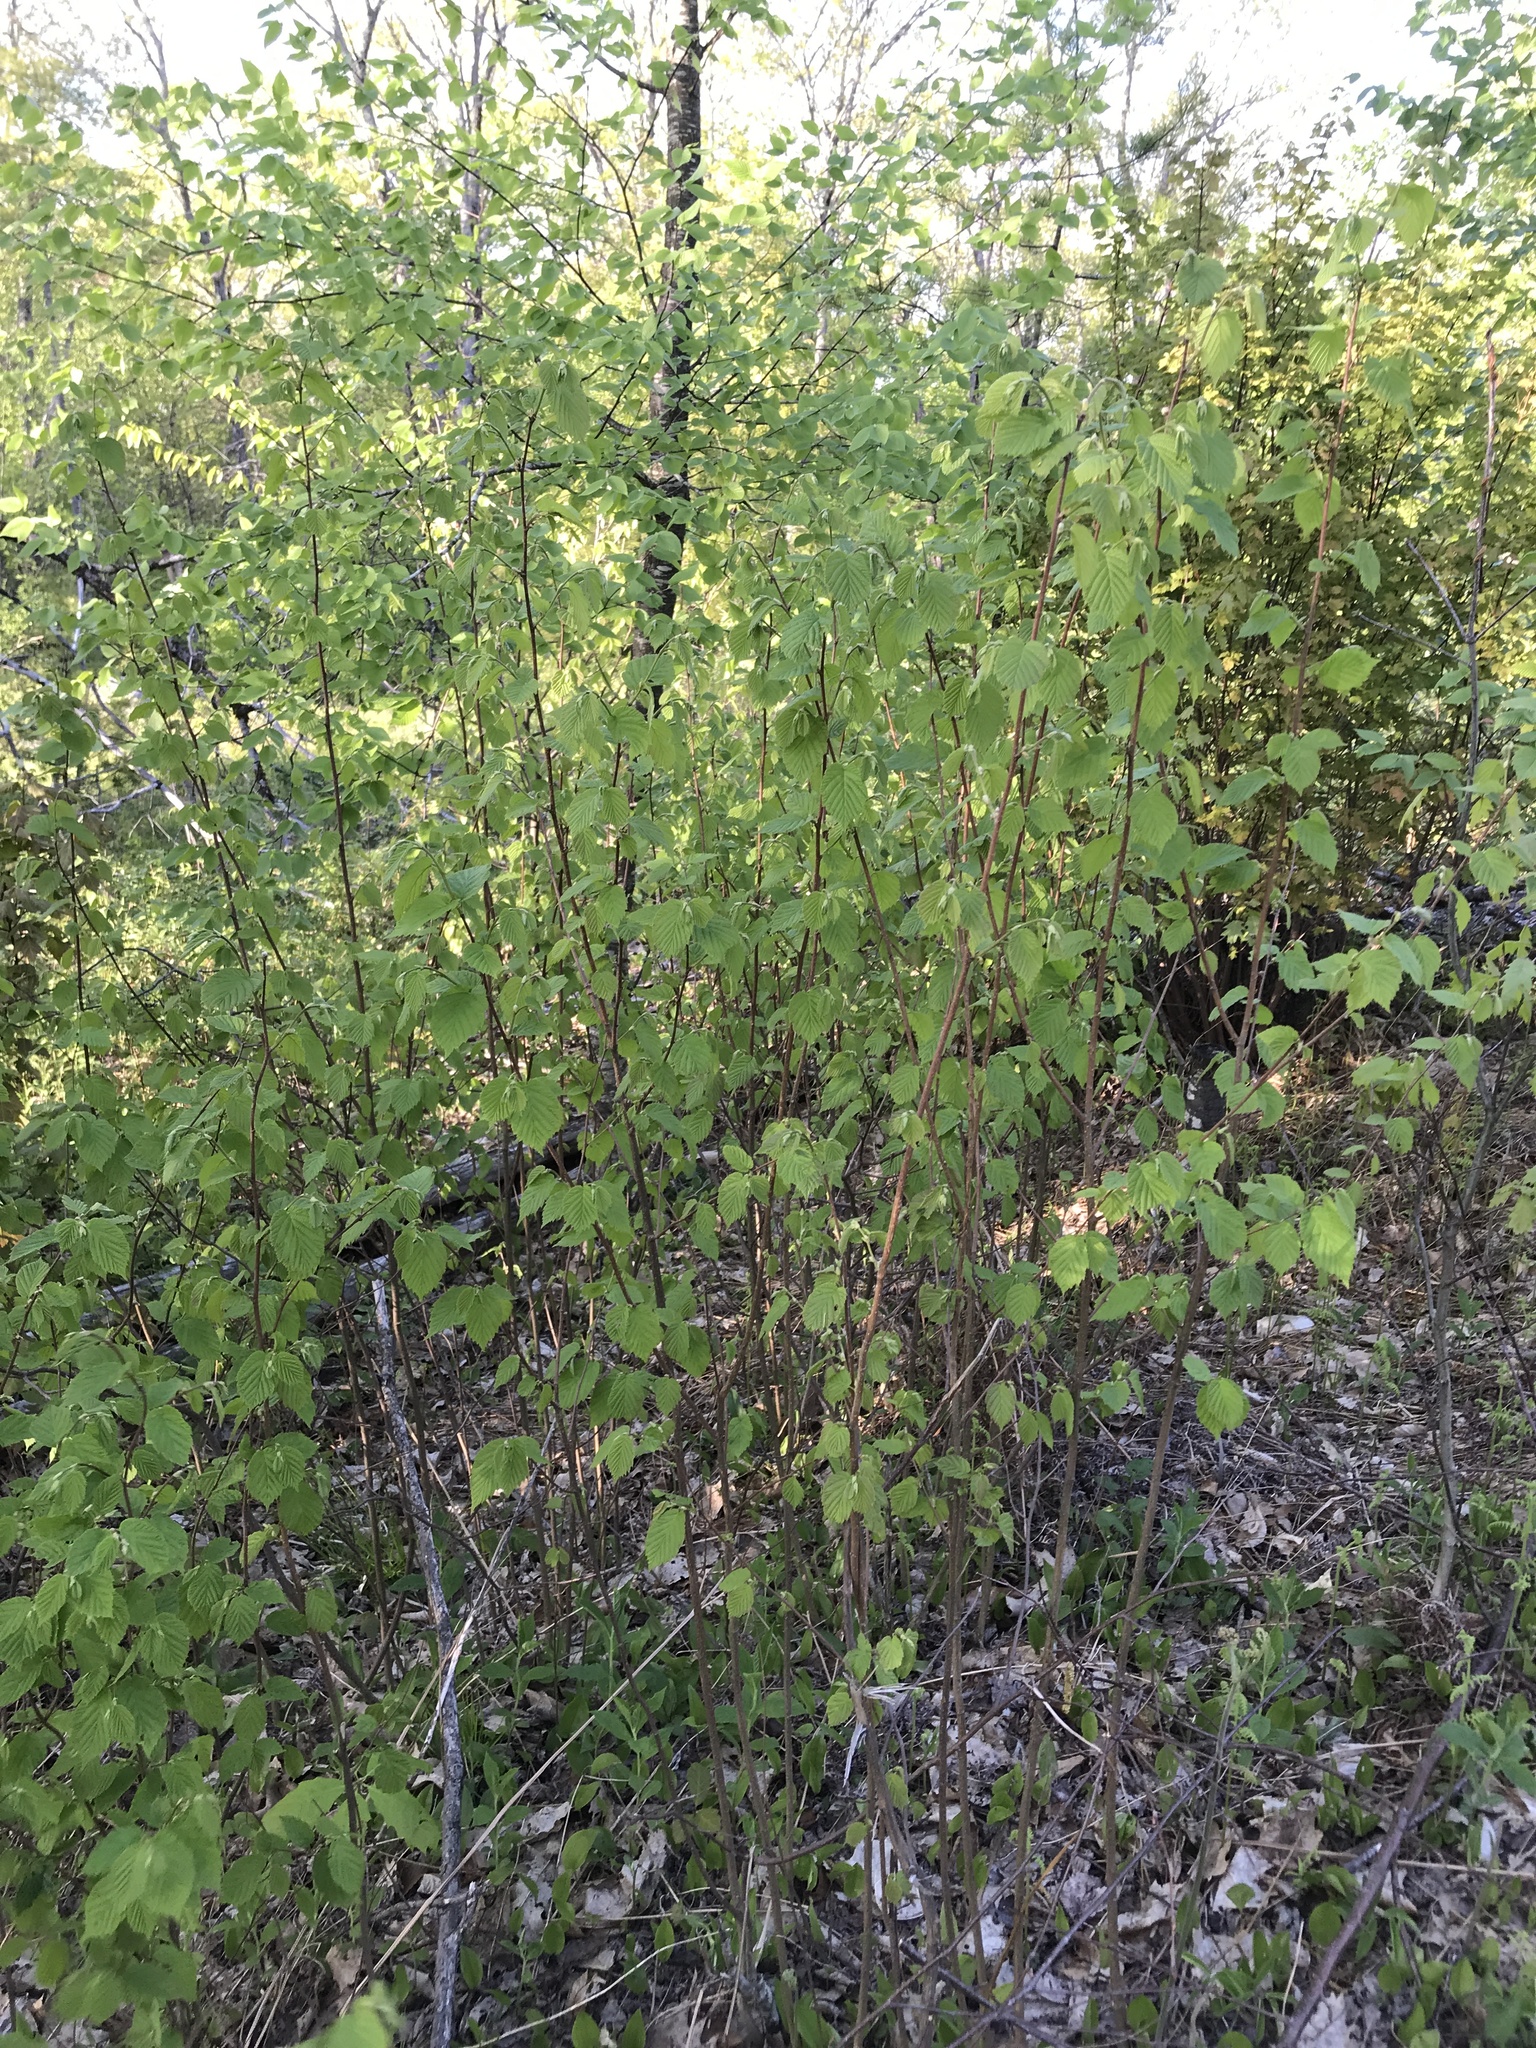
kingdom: Plantae
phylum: Tracheophyta
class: Magnoliopsida
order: Fagales
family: Betulaceae
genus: Corylus
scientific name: Corylus americana
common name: American hazel
